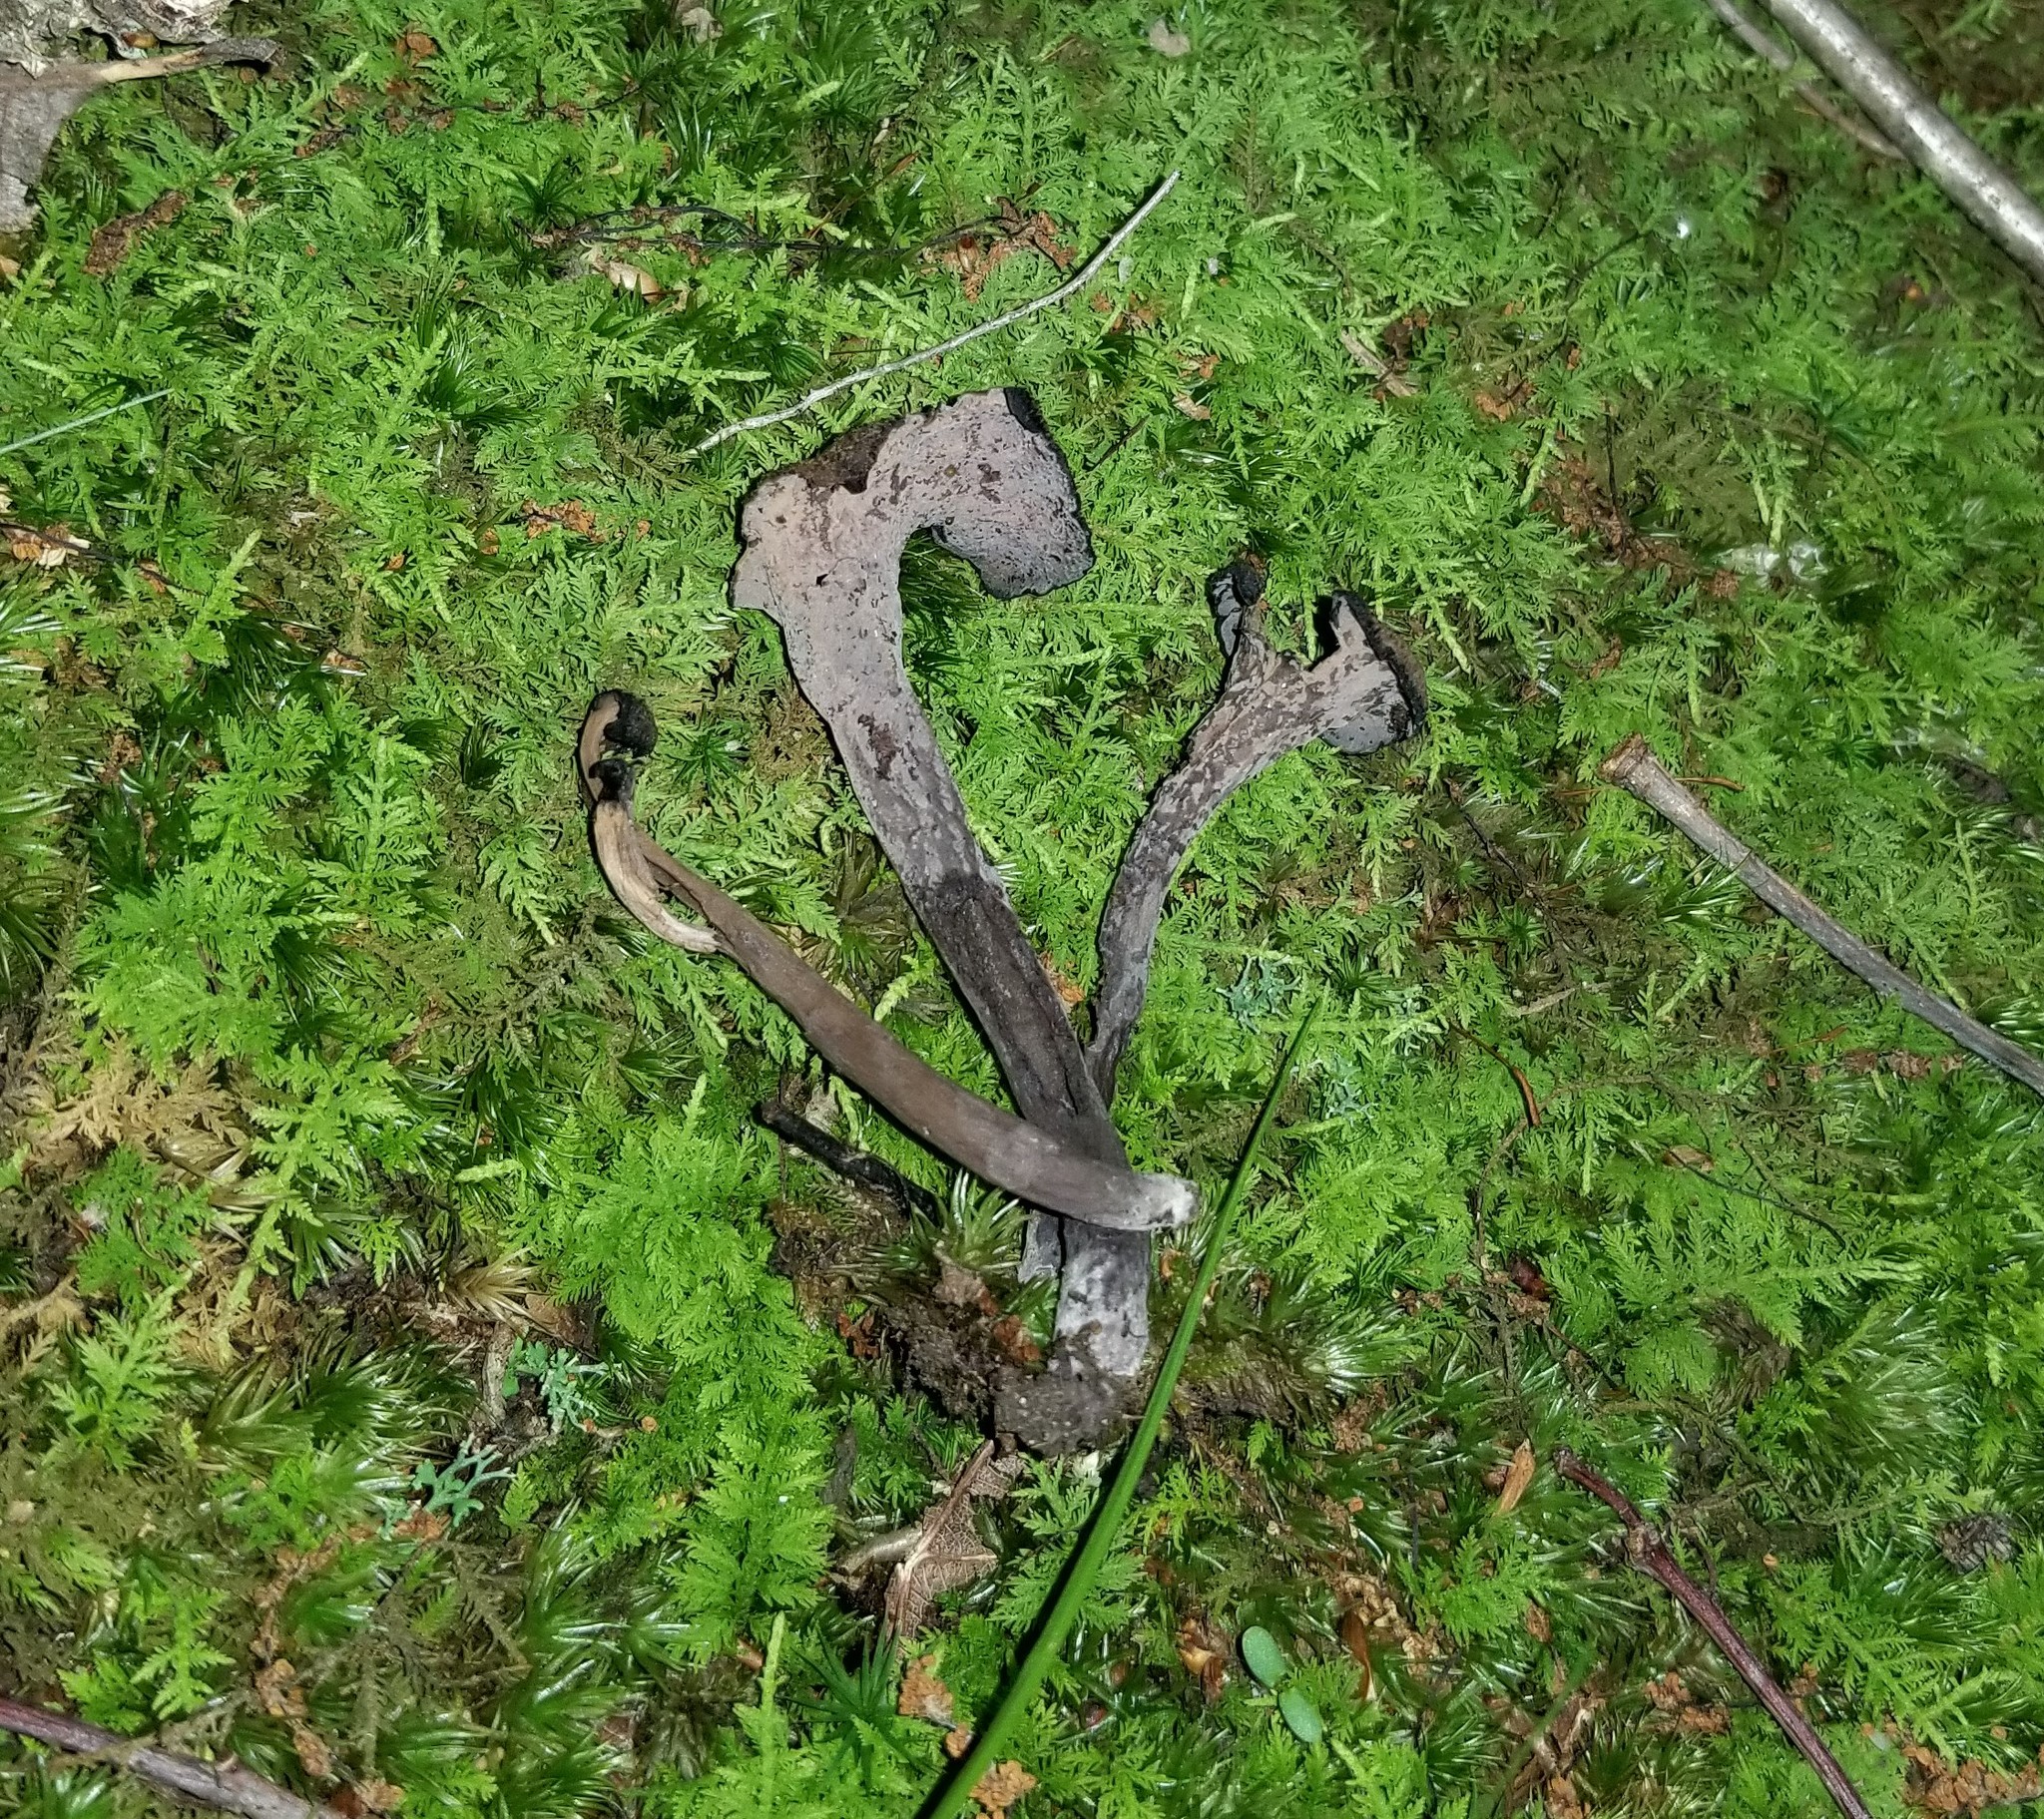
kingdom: Fungi
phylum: Basidiomycota
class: Agaricomycetes
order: Cantharellales
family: Hydnaceae
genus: Craterellus
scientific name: Craterellus cornucopioides
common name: Horn of plenty
